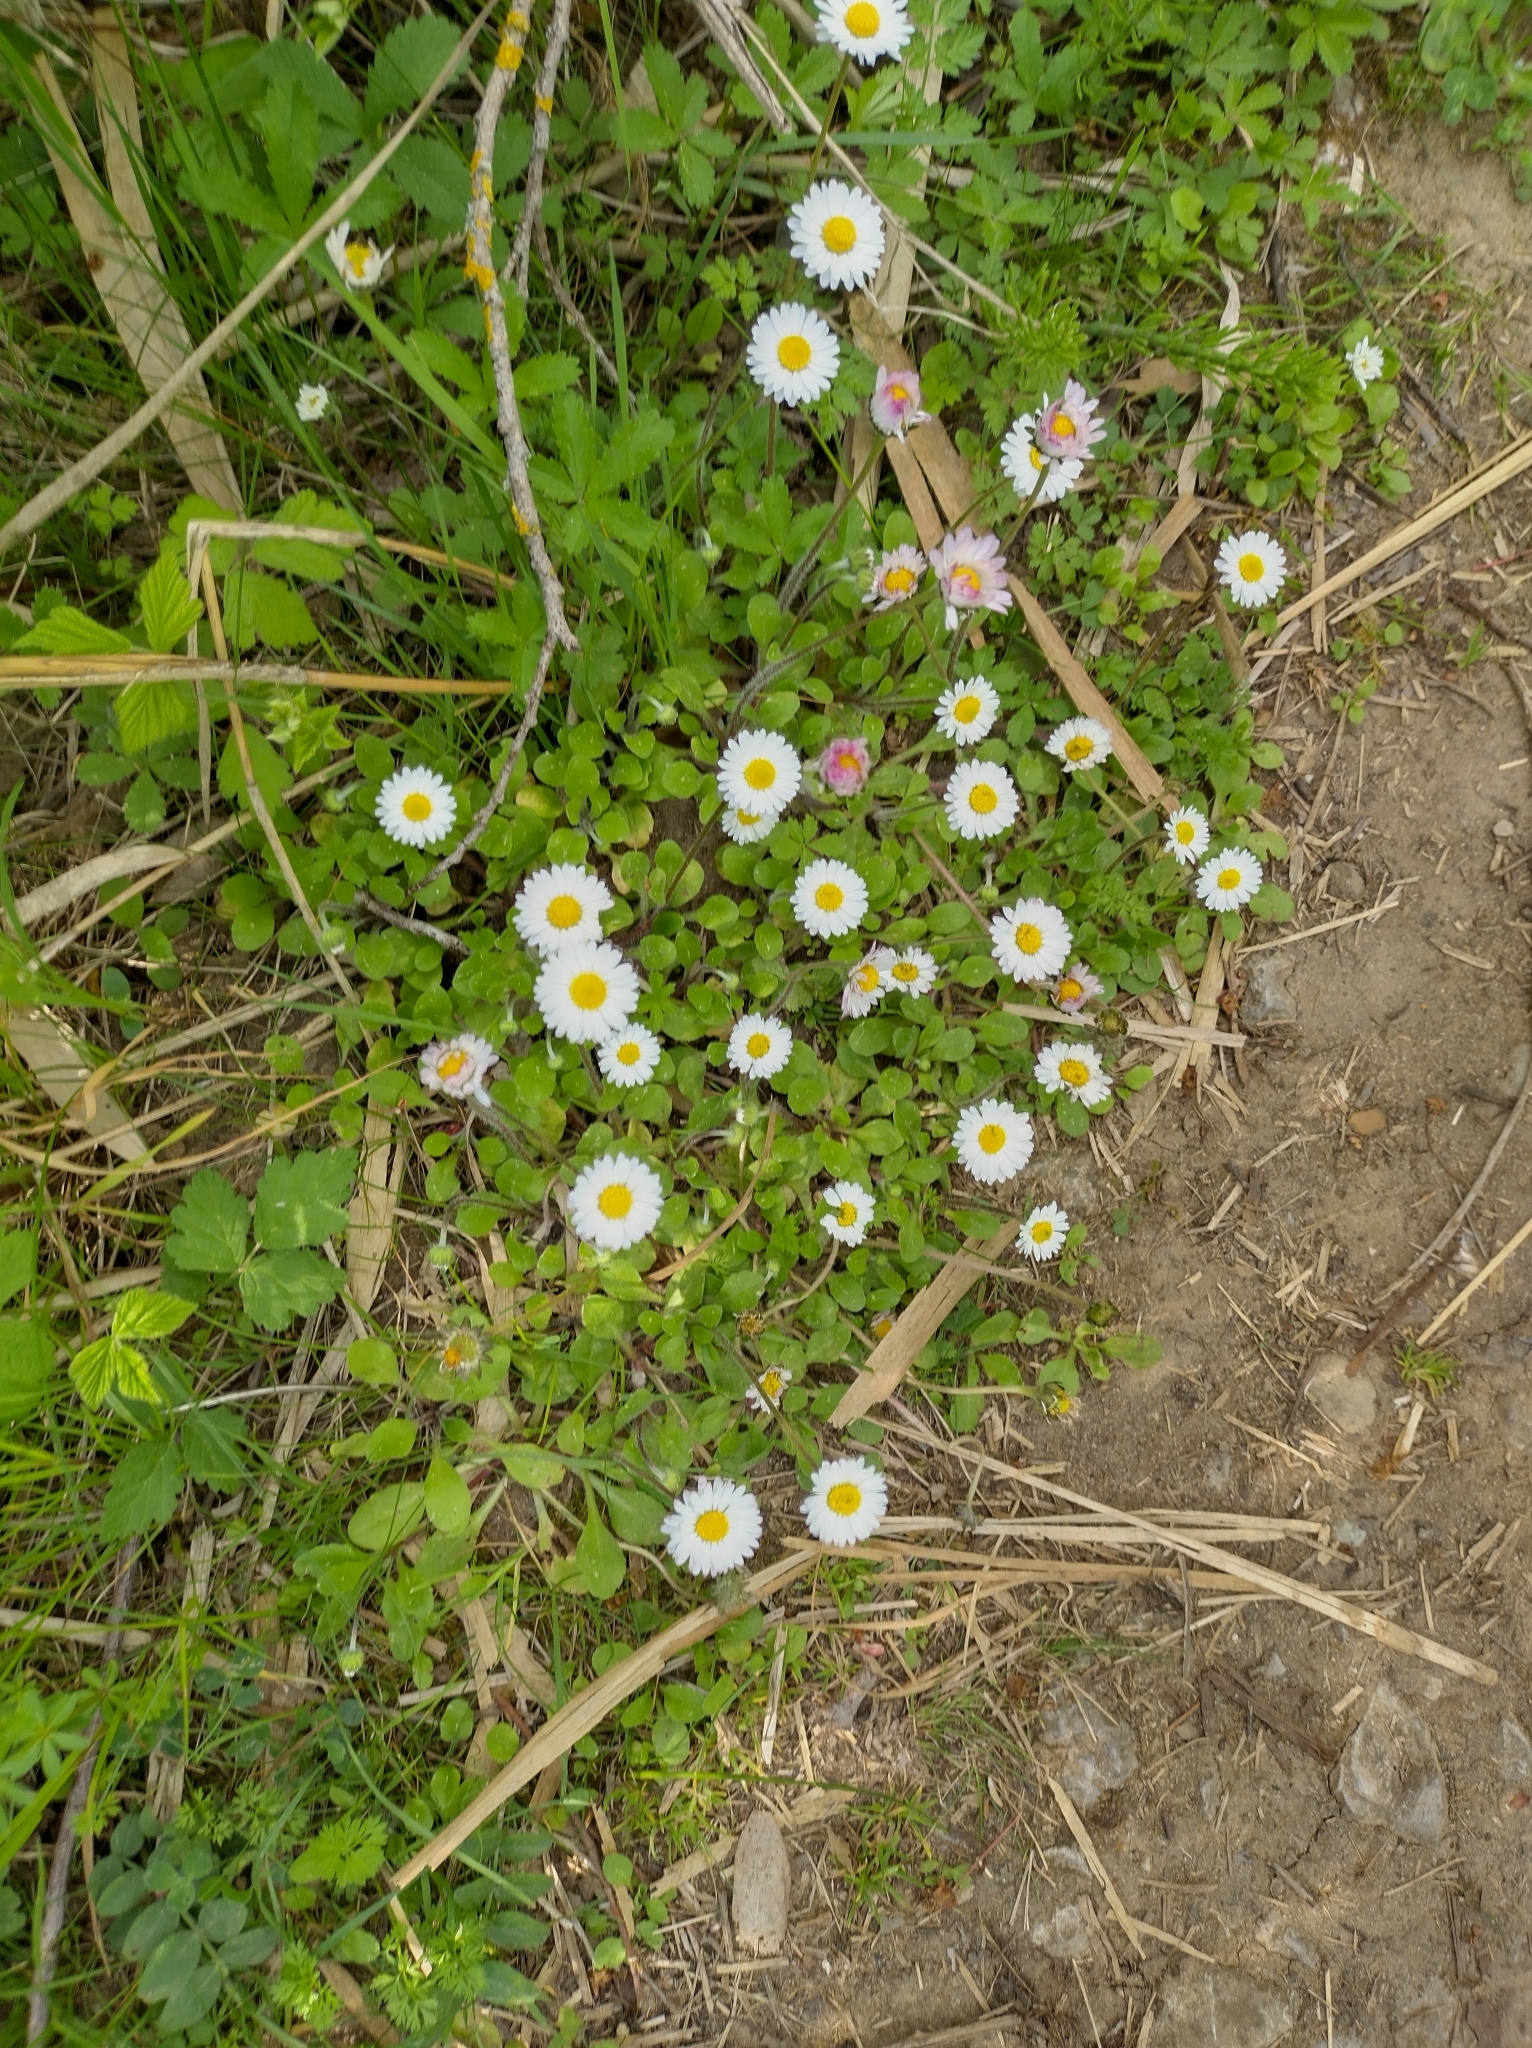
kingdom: Plantae
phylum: Tracheophyta
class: Magnoliopsida
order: Asterales
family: Asteraceae
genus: Bellis
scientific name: Bellis perennis
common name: Lawndaisy
